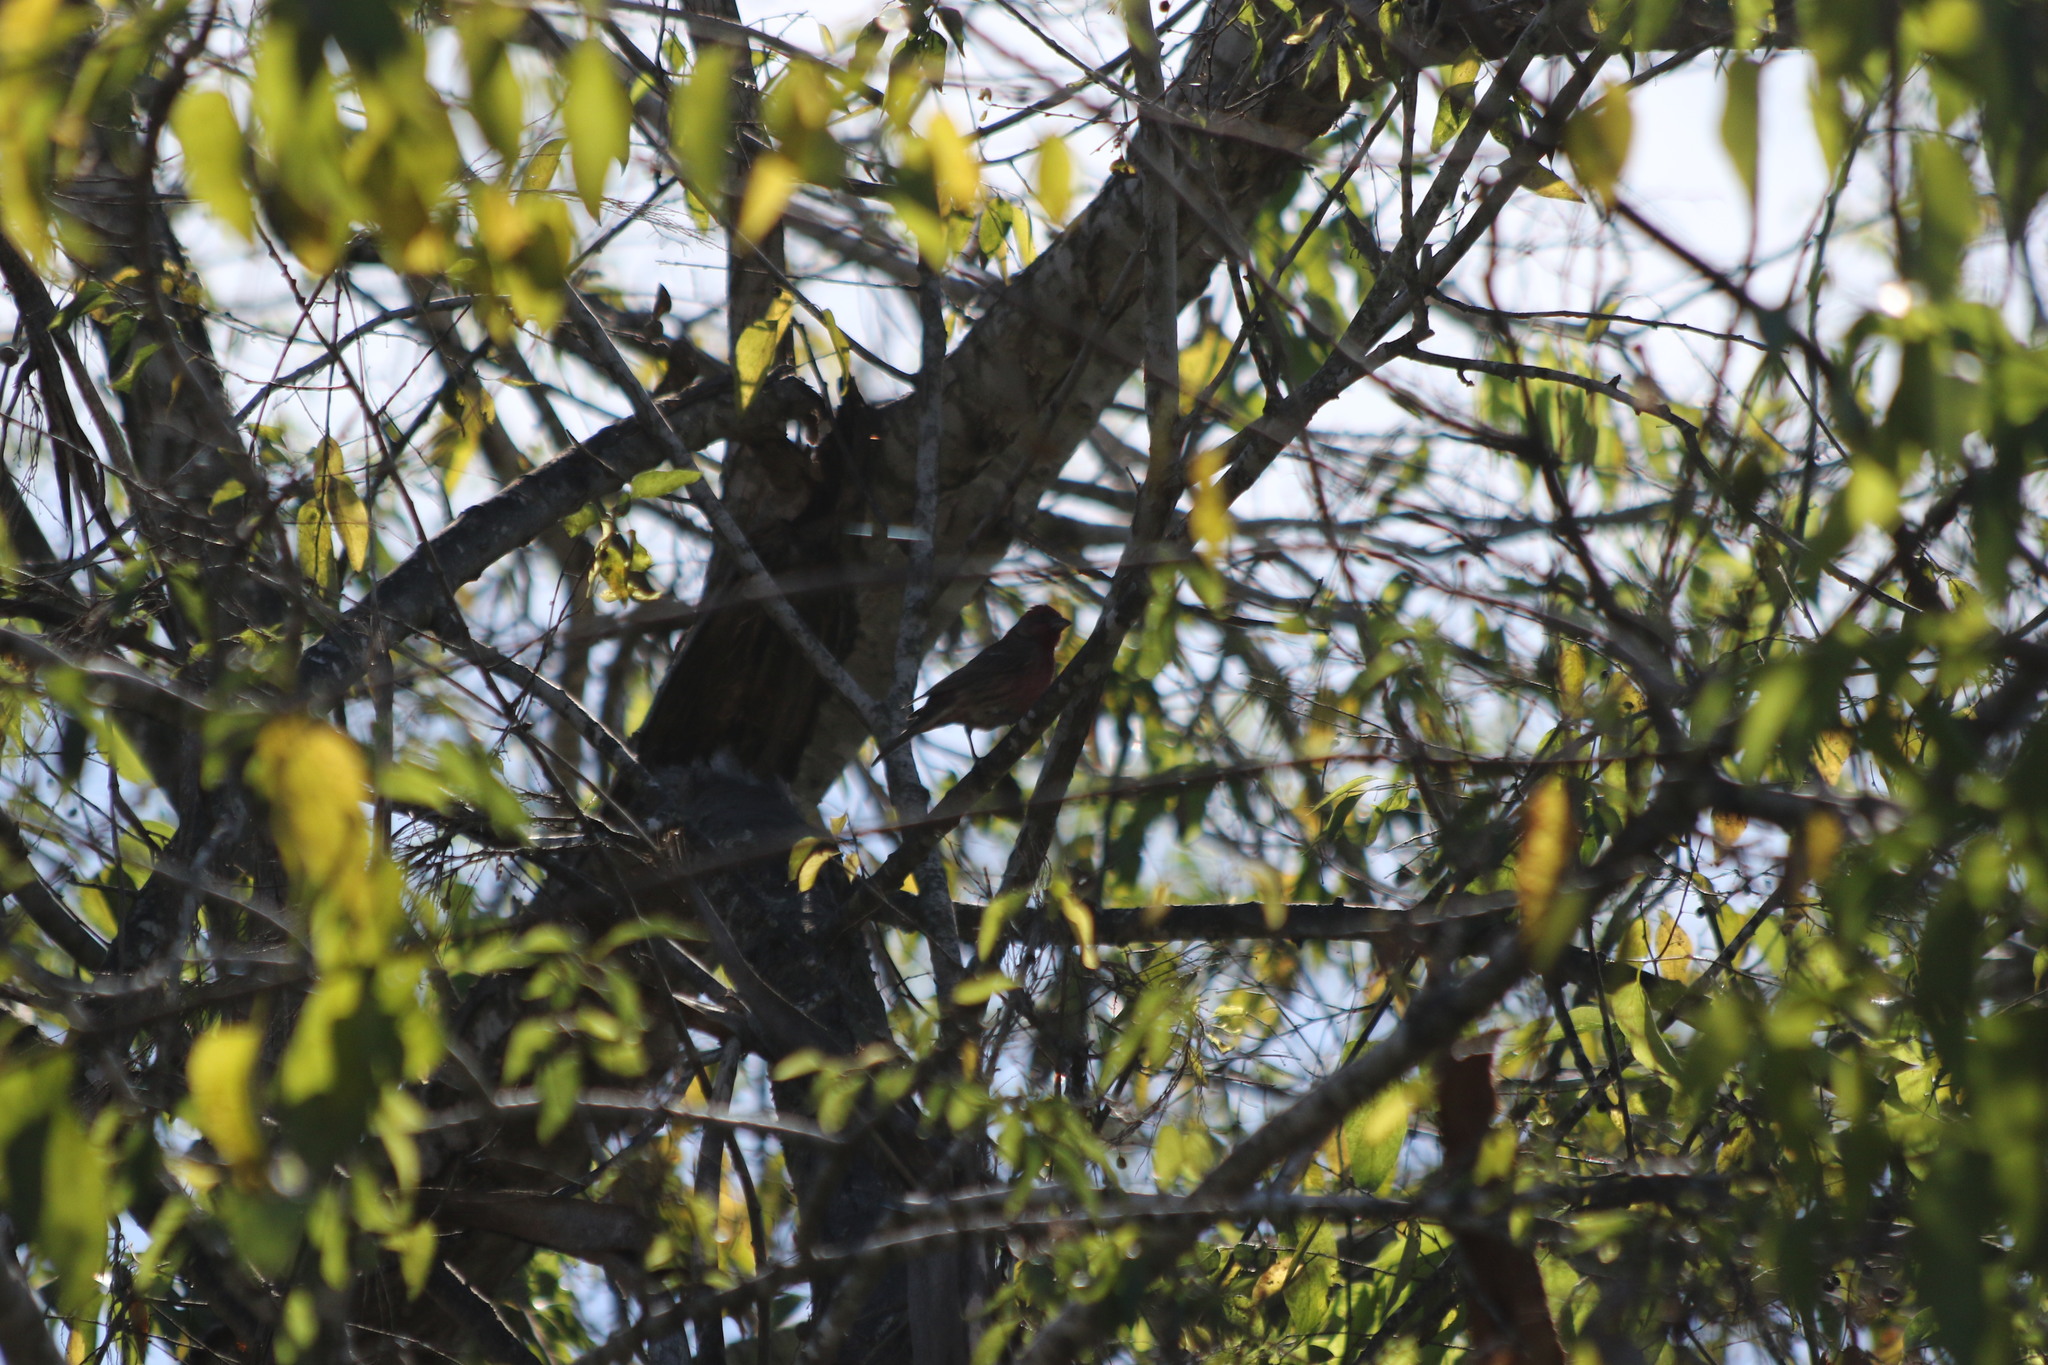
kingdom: Animalia
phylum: Chordata
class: Aves
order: Passeriformes
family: Fringillidae
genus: Haemorhous
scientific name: Haemorhous mexicanus
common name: House finch
